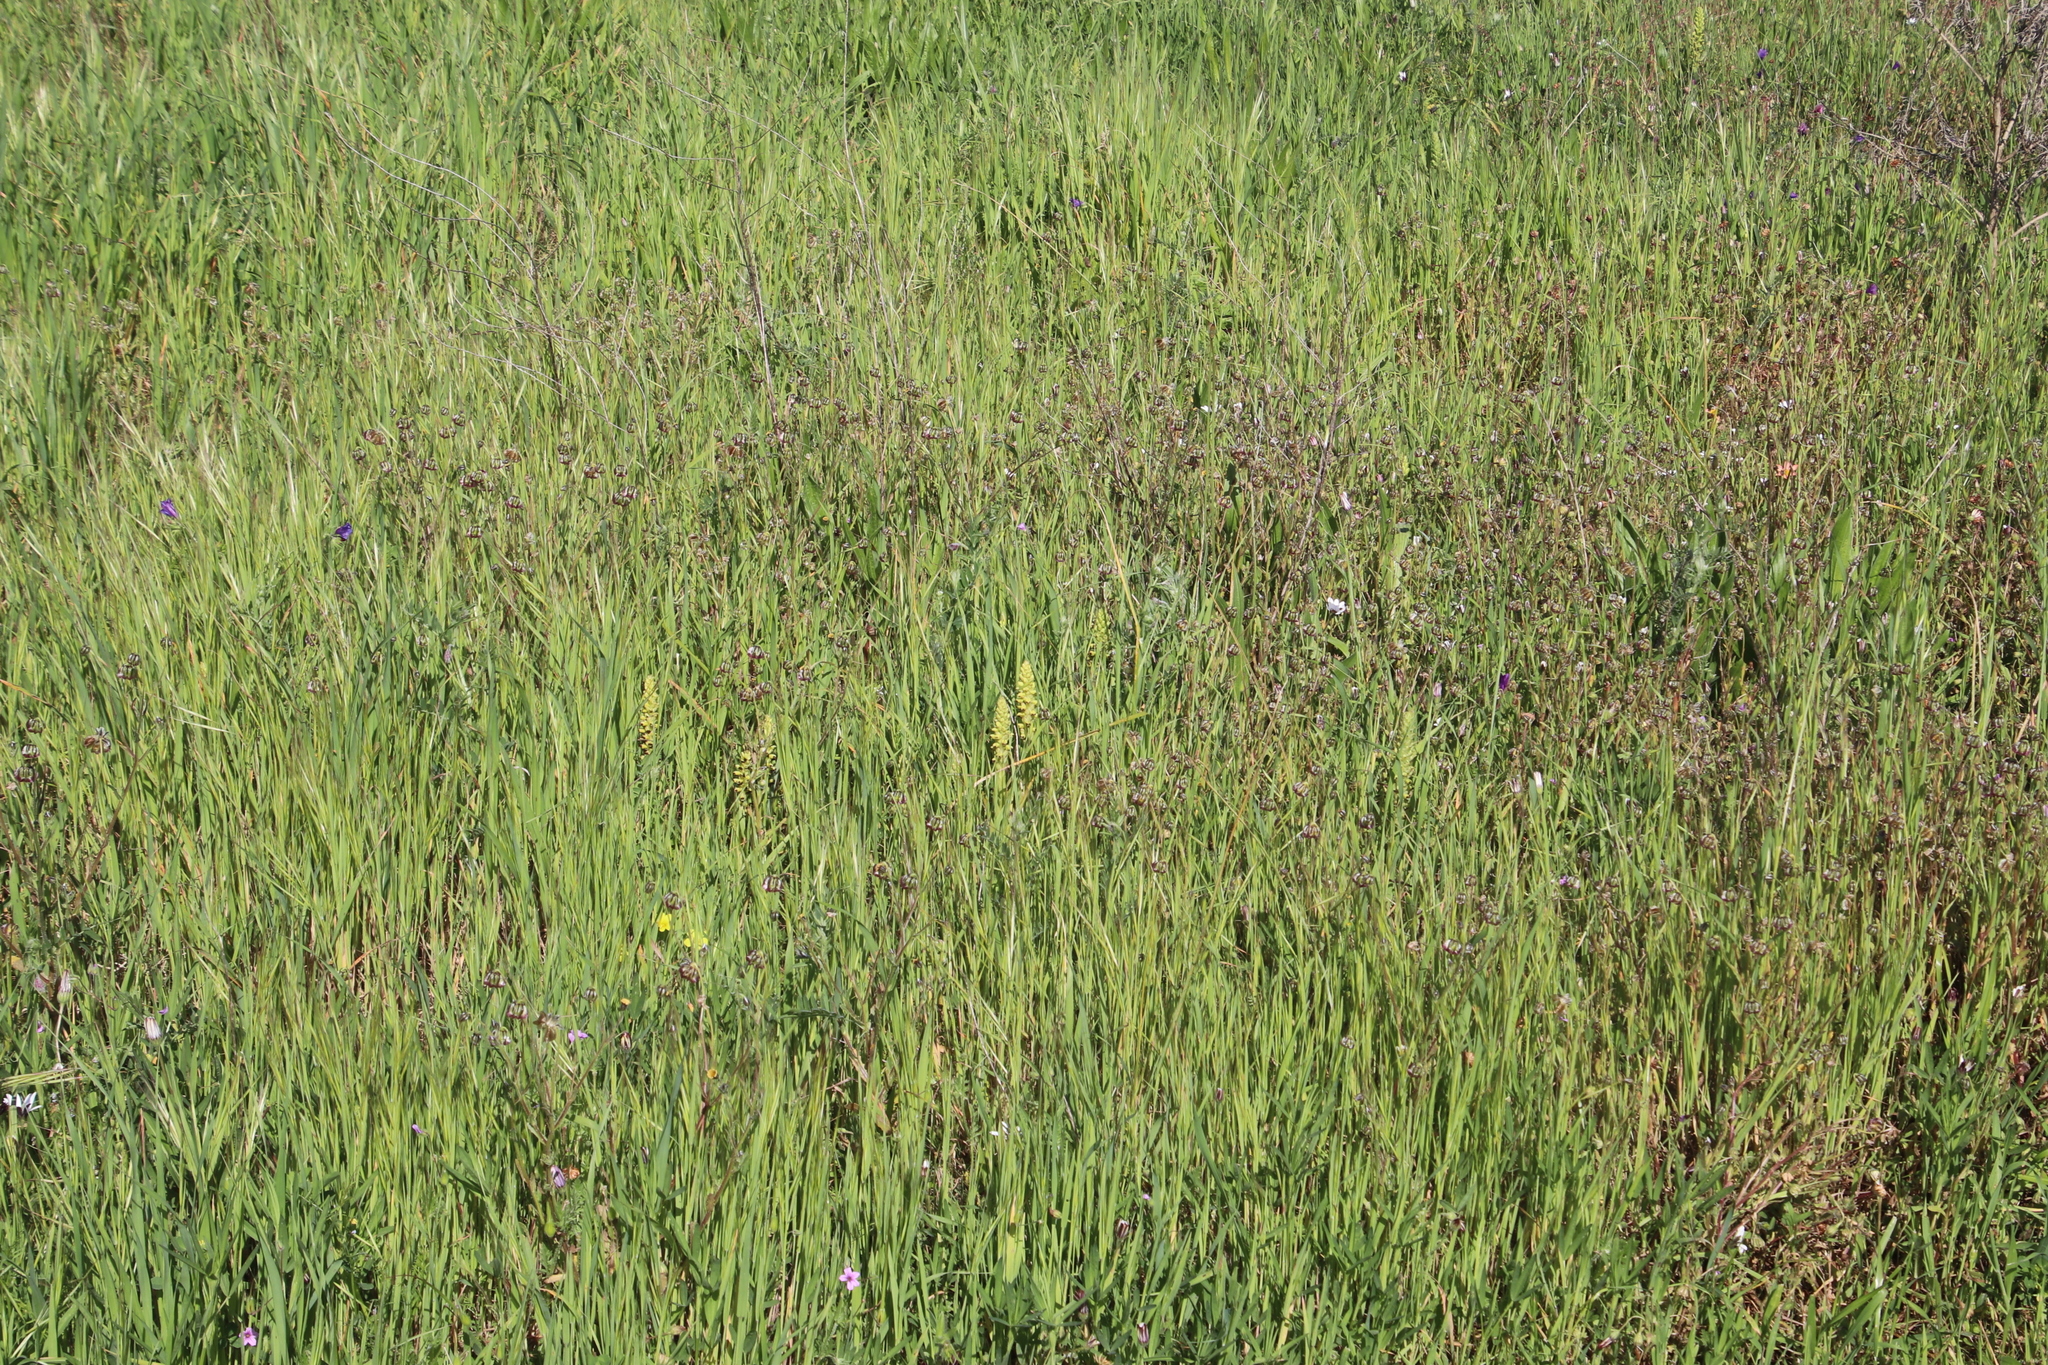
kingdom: Plantae
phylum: Tracheophyta
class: Liliopsida
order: Asparagales
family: Orchidaceae
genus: Corycium
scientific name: Corycium orobanchoides
